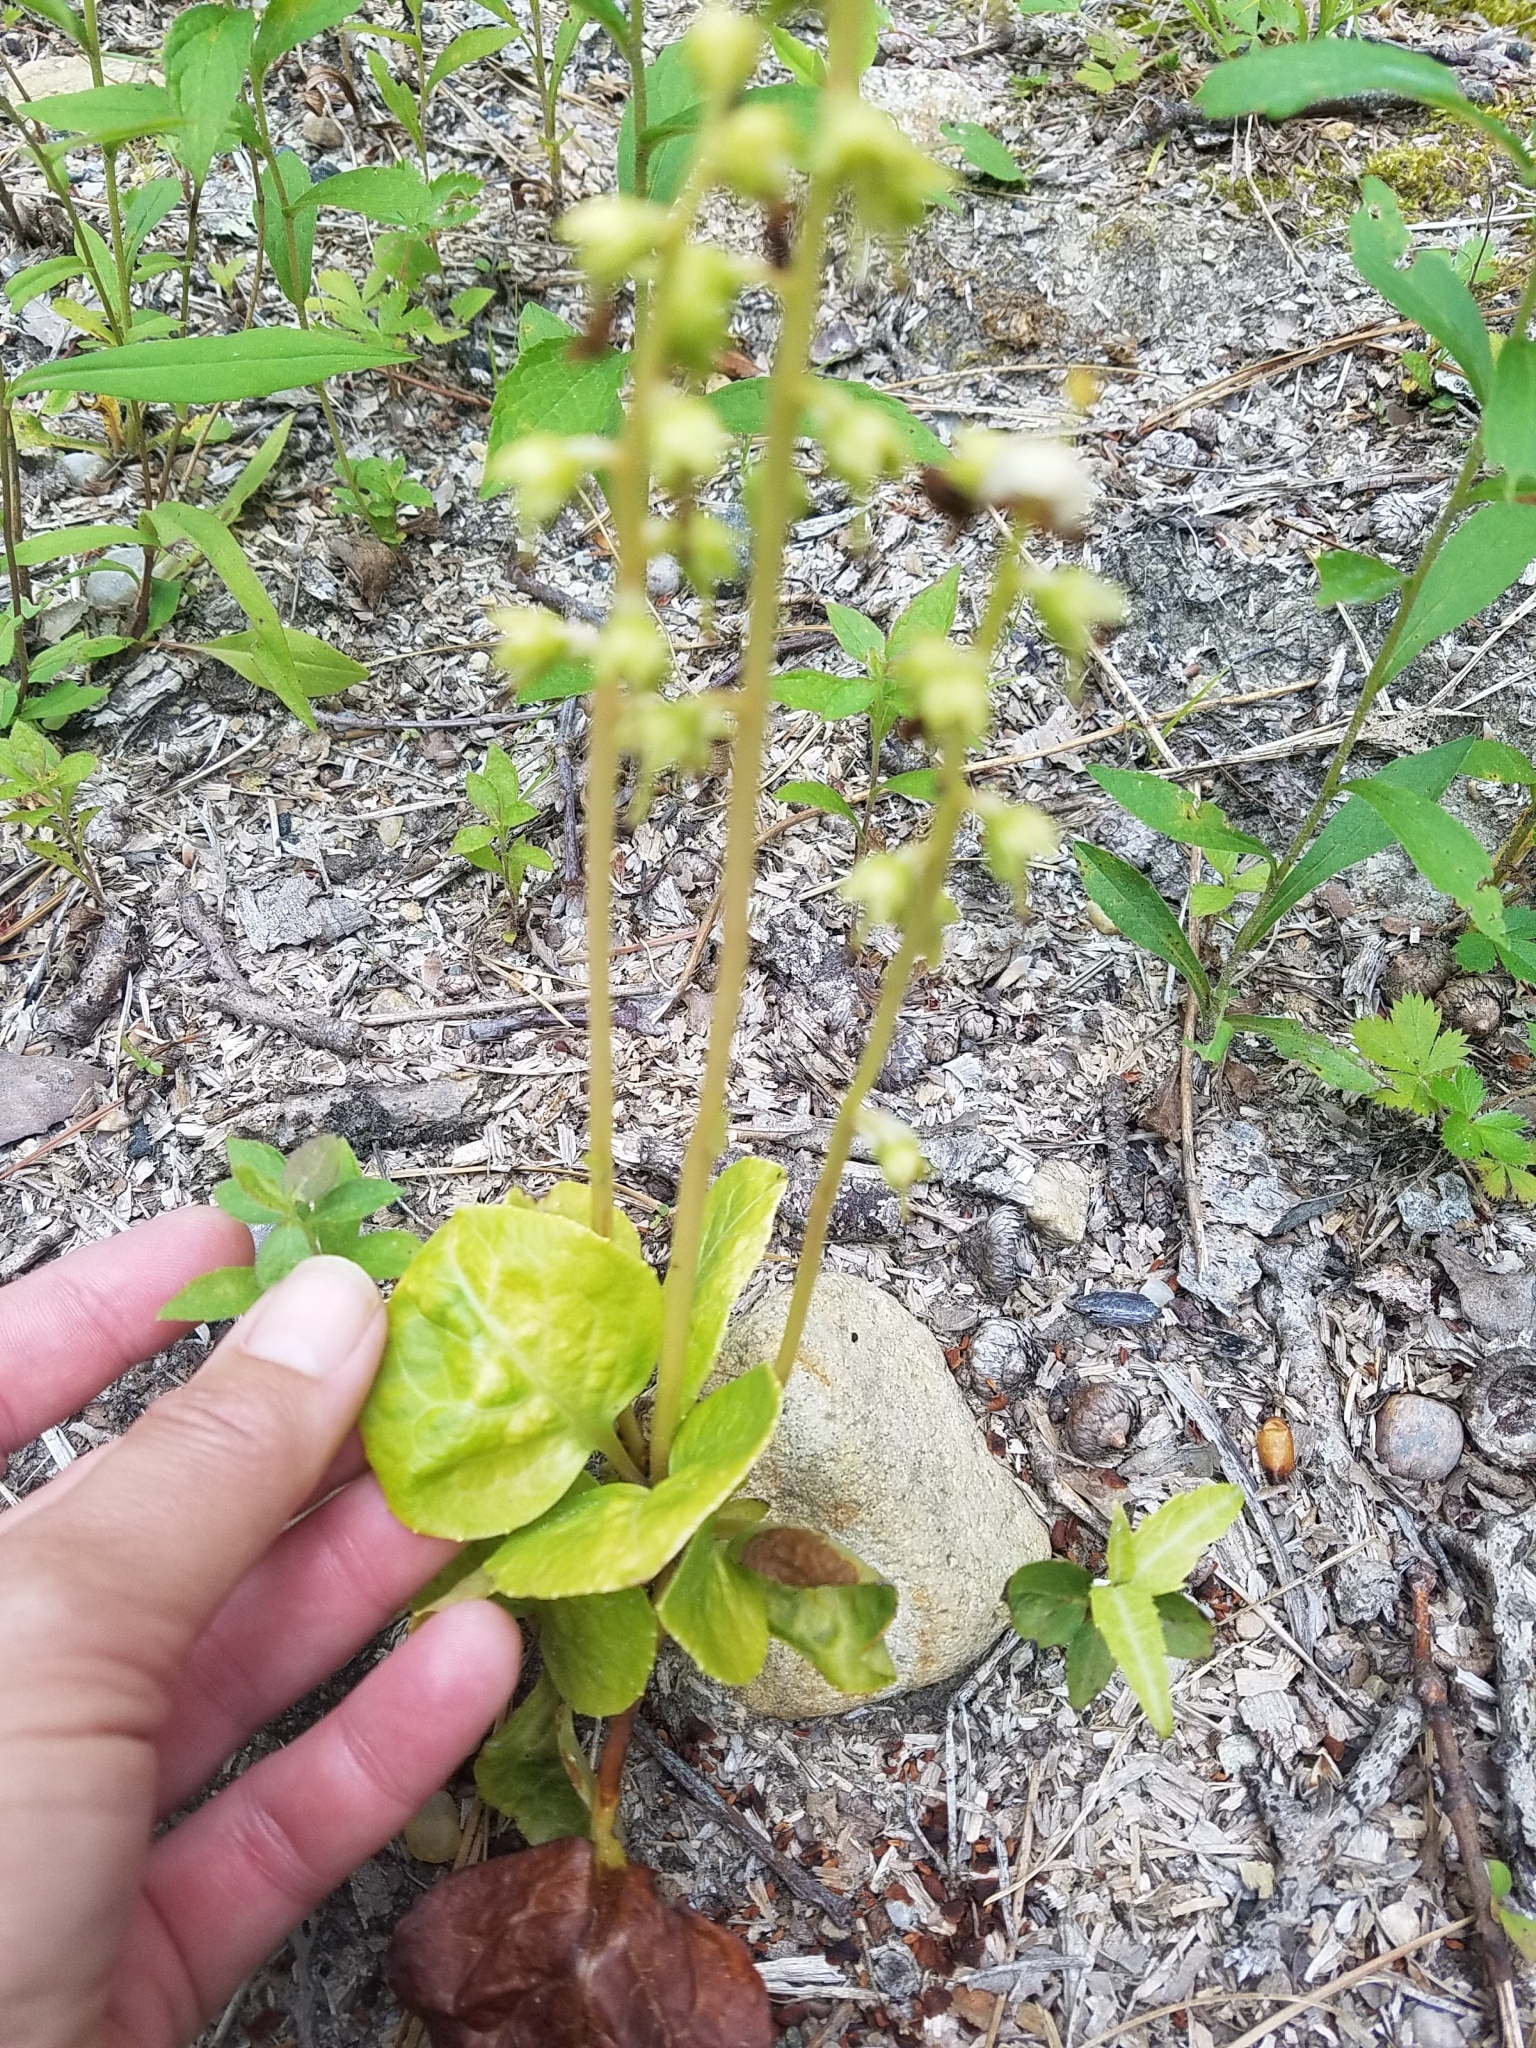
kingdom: Plantae
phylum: Tracheophyta
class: Magnoliopsida
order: Ericales
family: Ericaceae
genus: Pyrola
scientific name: Pyrola americana
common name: American wintergreen
